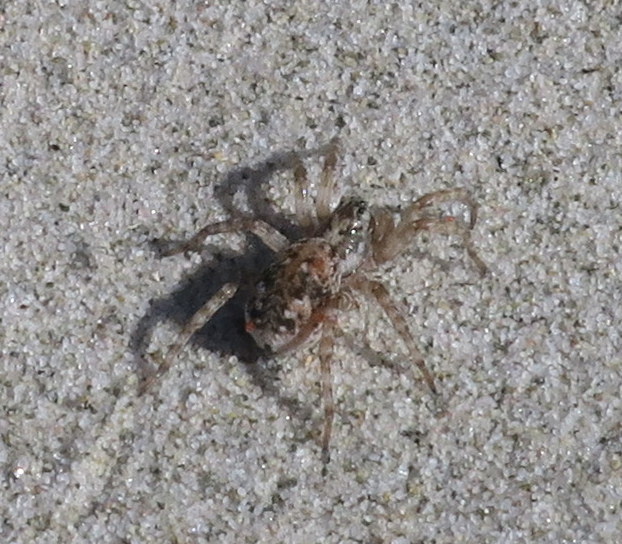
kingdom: Animalia
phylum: Arthropoda
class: Arachnida
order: Araneae
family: Lycosidae
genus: Tetralycosa
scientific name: Tetralycosa oraria
